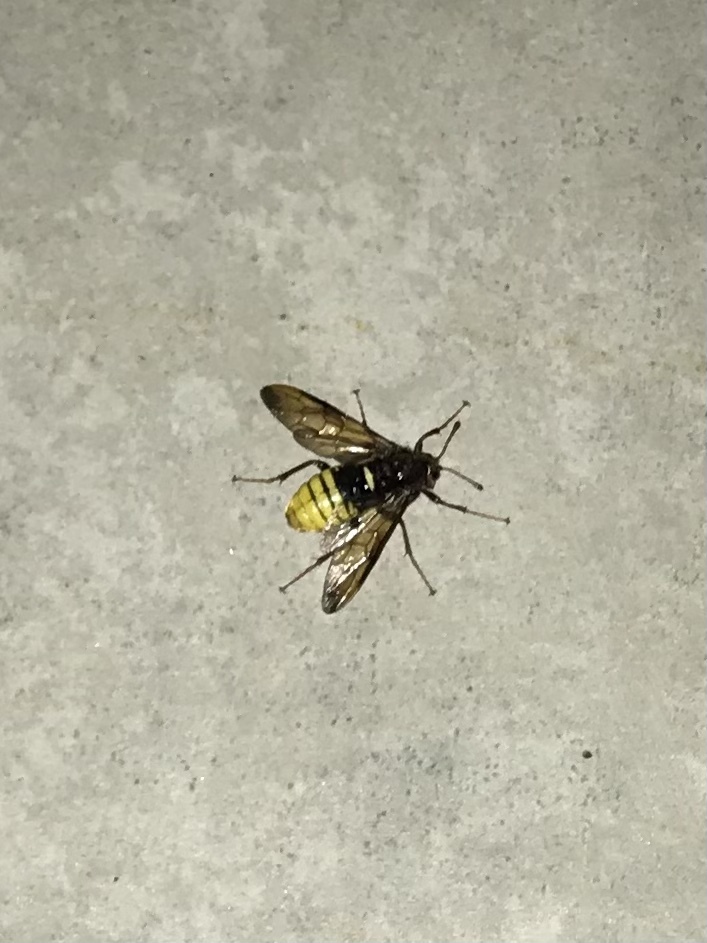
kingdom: Animalia
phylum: Arthropoda
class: Insecta
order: Hymenoptera
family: Cimbicidae
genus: Cimbex
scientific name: Cimbex connatus
